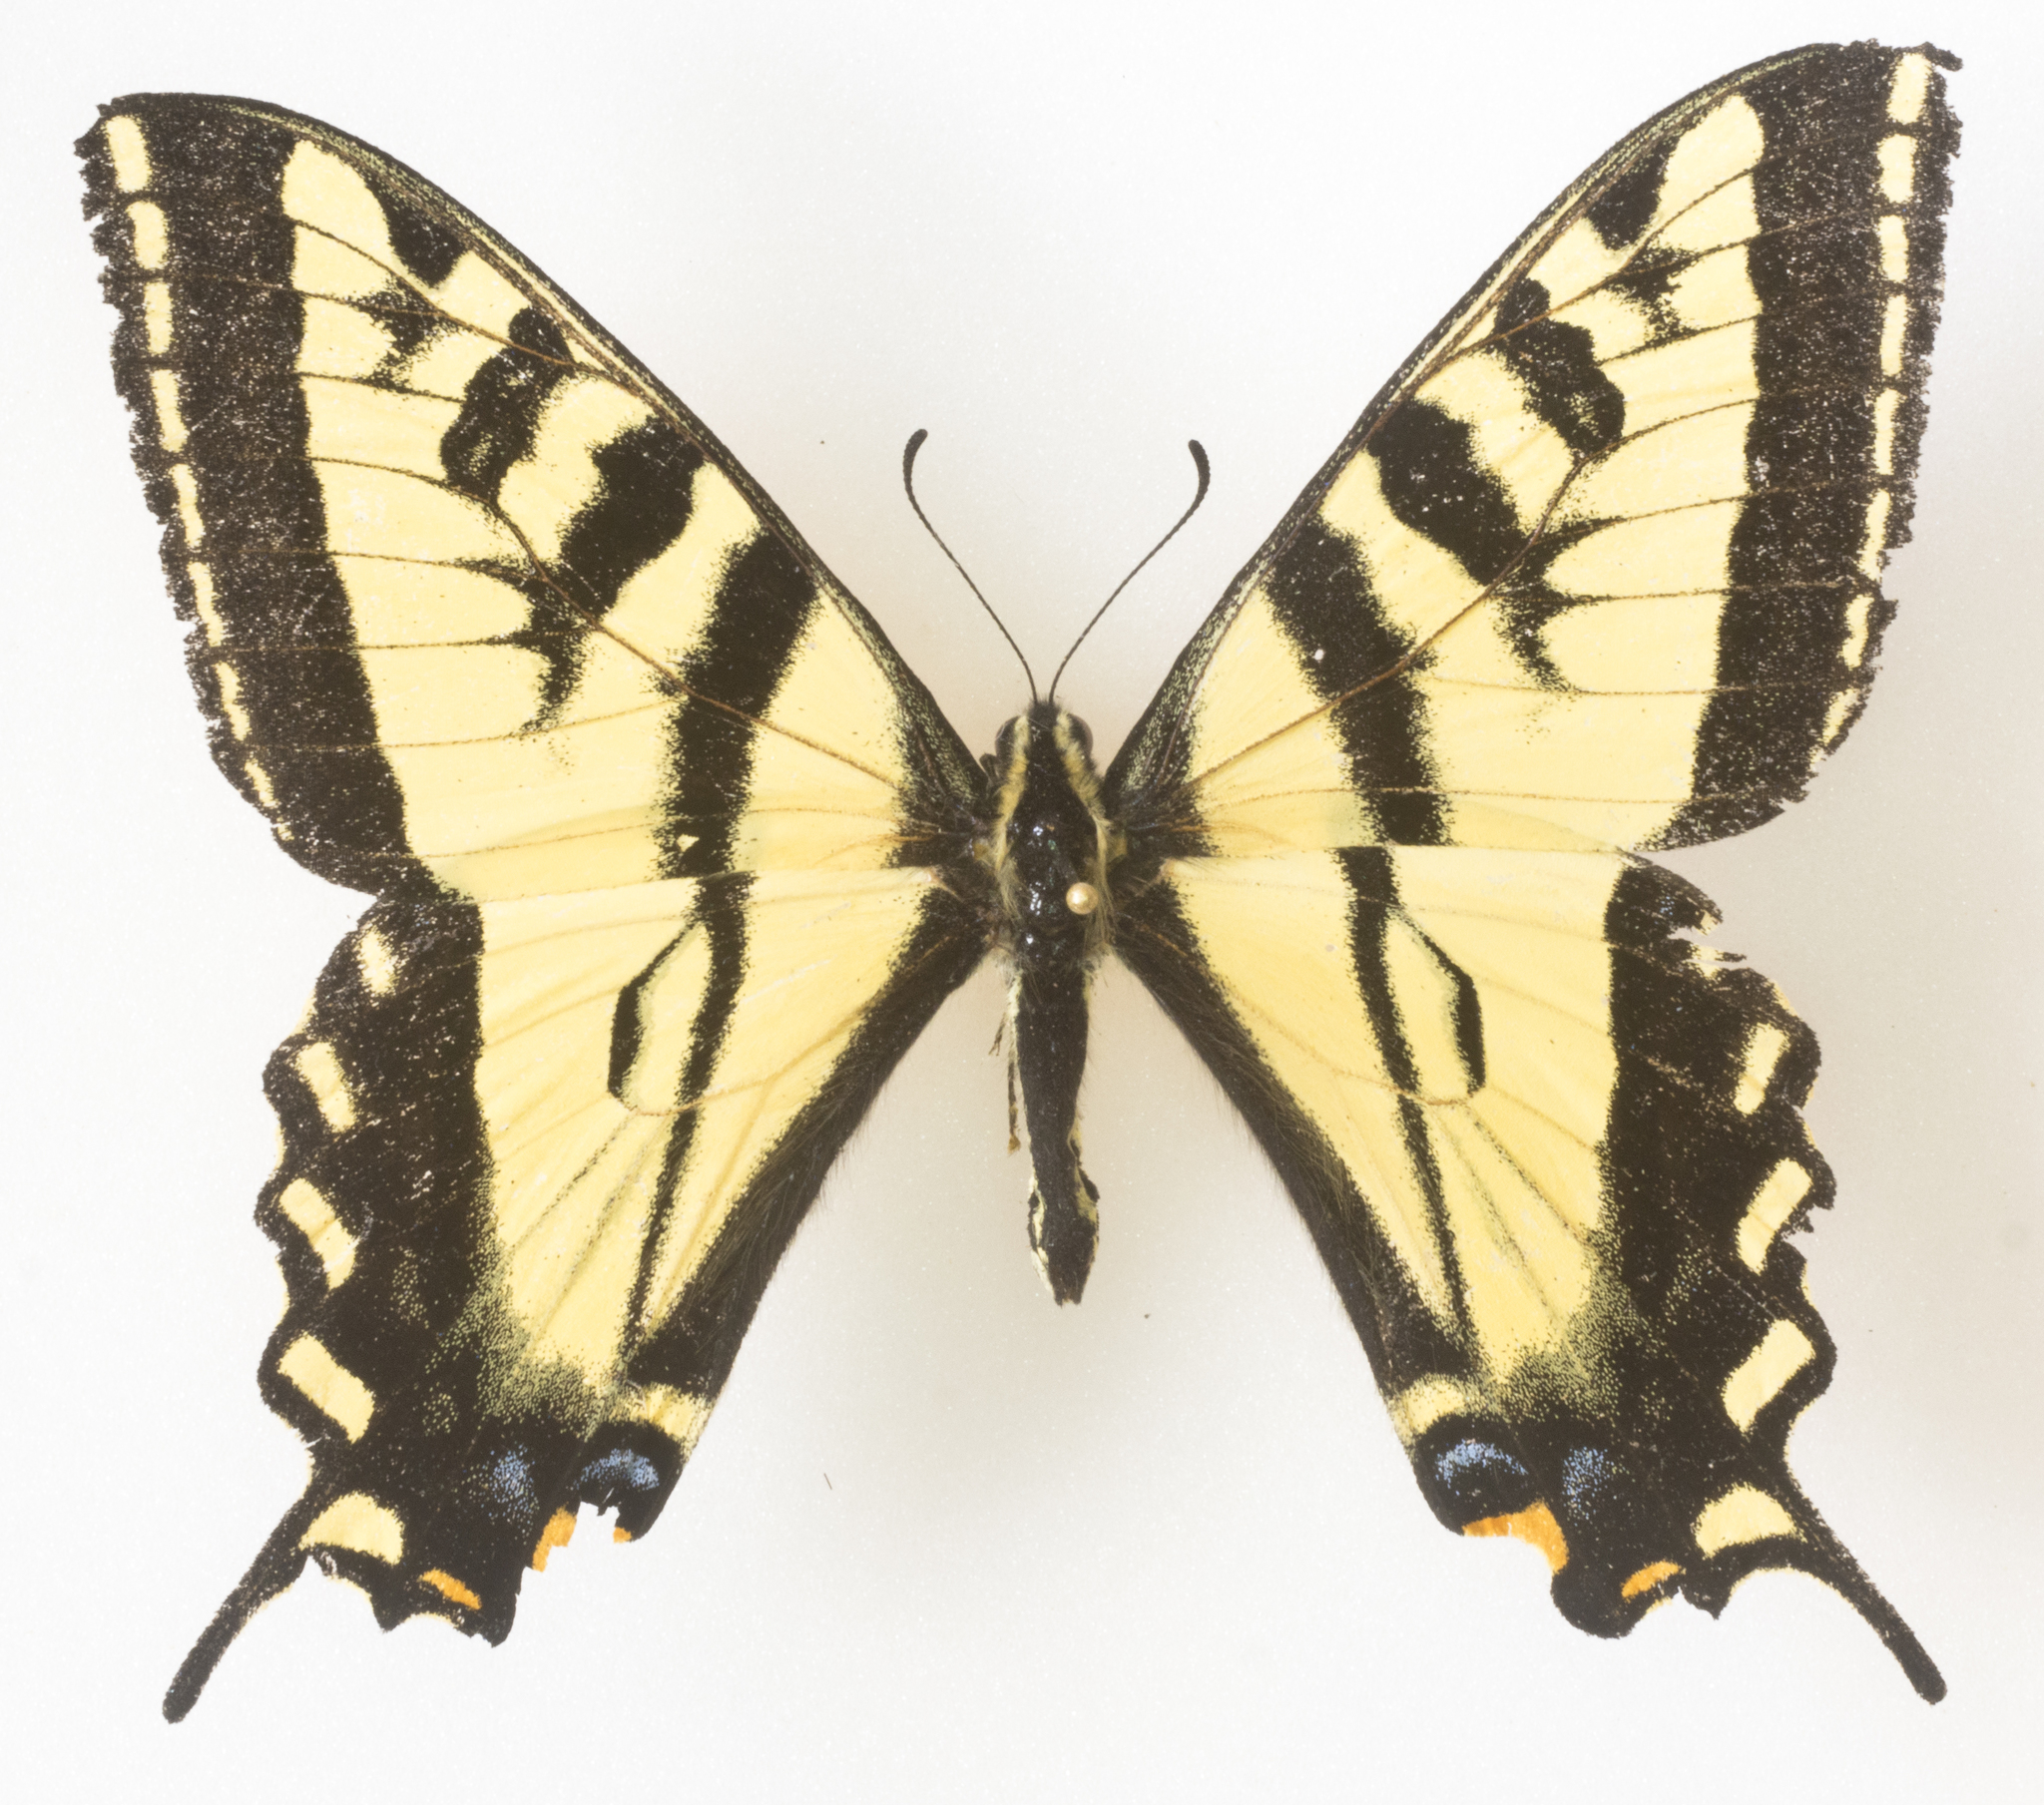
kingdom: Animalia
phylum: Arthropoda
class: Insecta
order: Lepidoptera
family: Papilionidae
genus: Papilio
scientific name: Papilio rutulus
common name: Western tiger swallowtail
